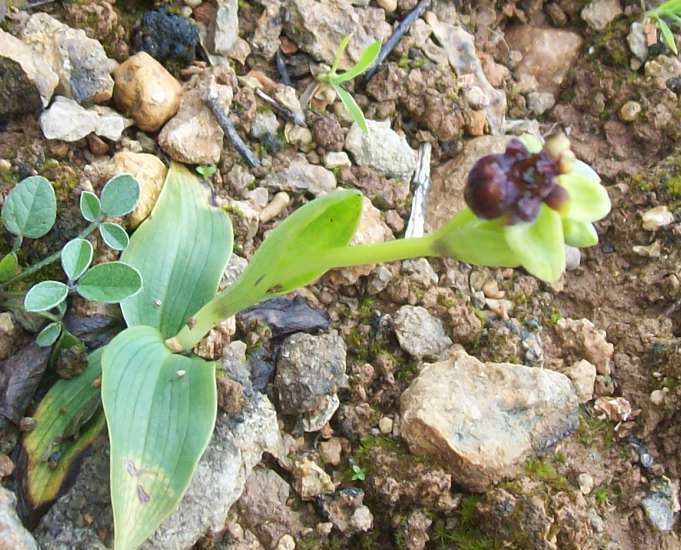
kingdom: Plantae
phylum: Tracheophyta
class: Liliopsida
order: Asparagales
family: Orchidaceae
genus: Ophrys
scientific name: Ophrys bombyliflora
